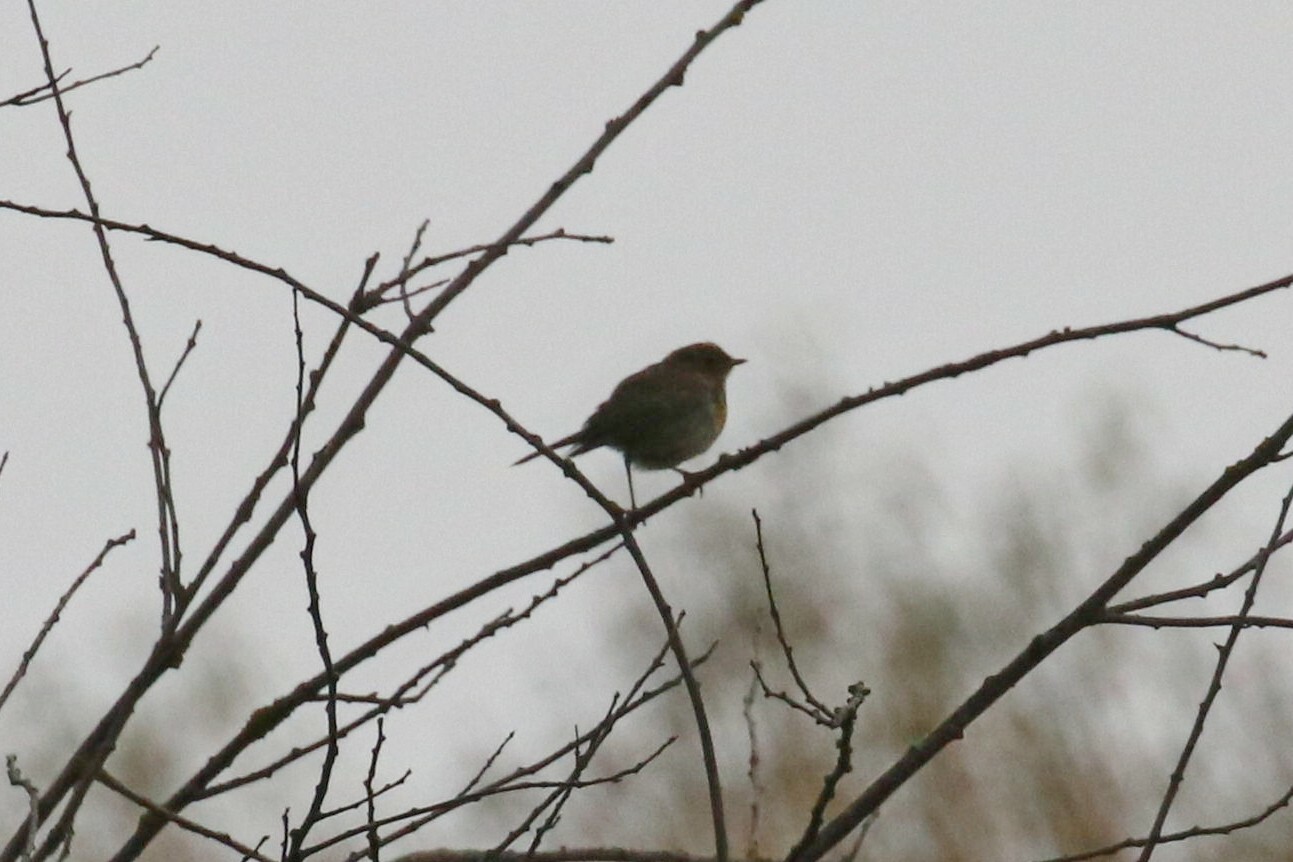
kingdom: Animalia
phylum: Chordata
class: Aves
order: Passeriformes
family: Muscicapidae
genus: Erithacus
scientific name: Erithacus rubecula
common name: European robin
